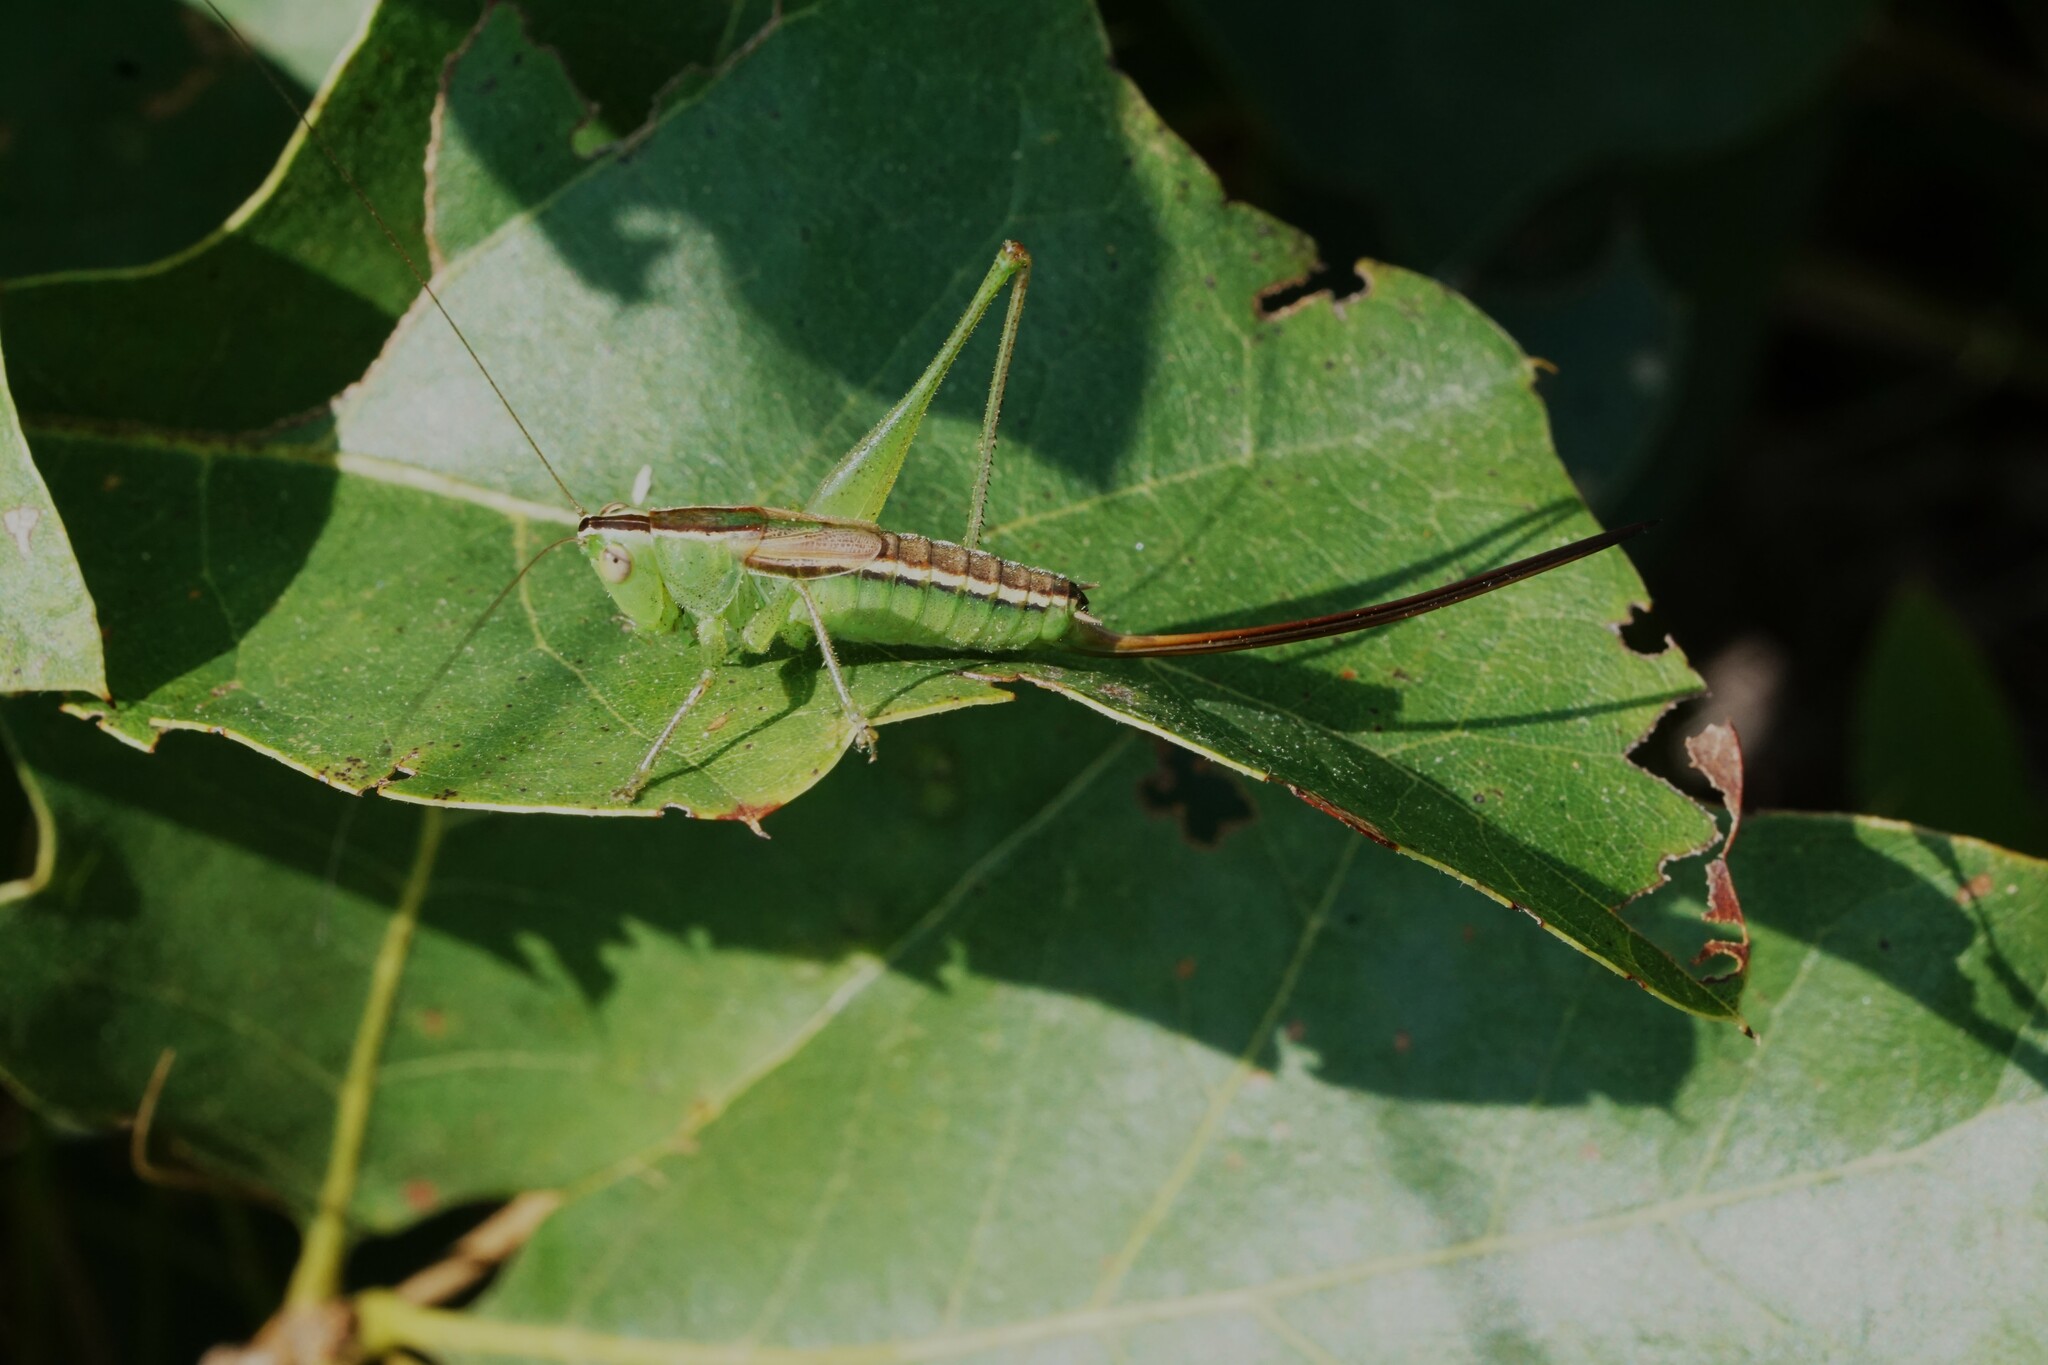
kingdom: Animalia
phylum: Arthropoda
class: Insecta
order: Orthoptera
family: Tettigoniidae
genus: Conocephalus
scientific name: Conocephalus strictus
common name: Straight-lanced katydid
